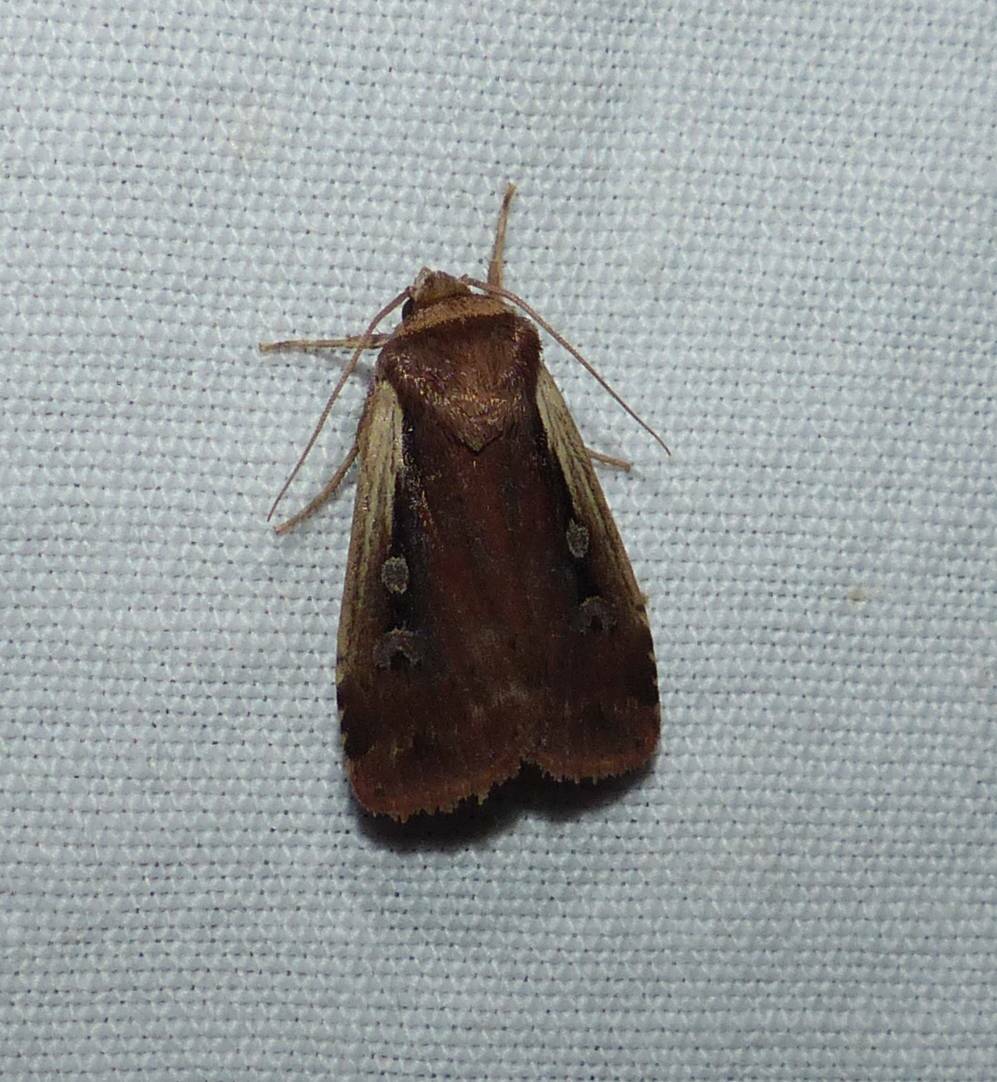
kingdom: Animalia
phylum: Arthropoda
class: Insecta
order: Lepidoptera
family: Noctuidae
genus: Ochropleura
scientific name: Ochropleura implecta
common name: Flame-shouldered dart
